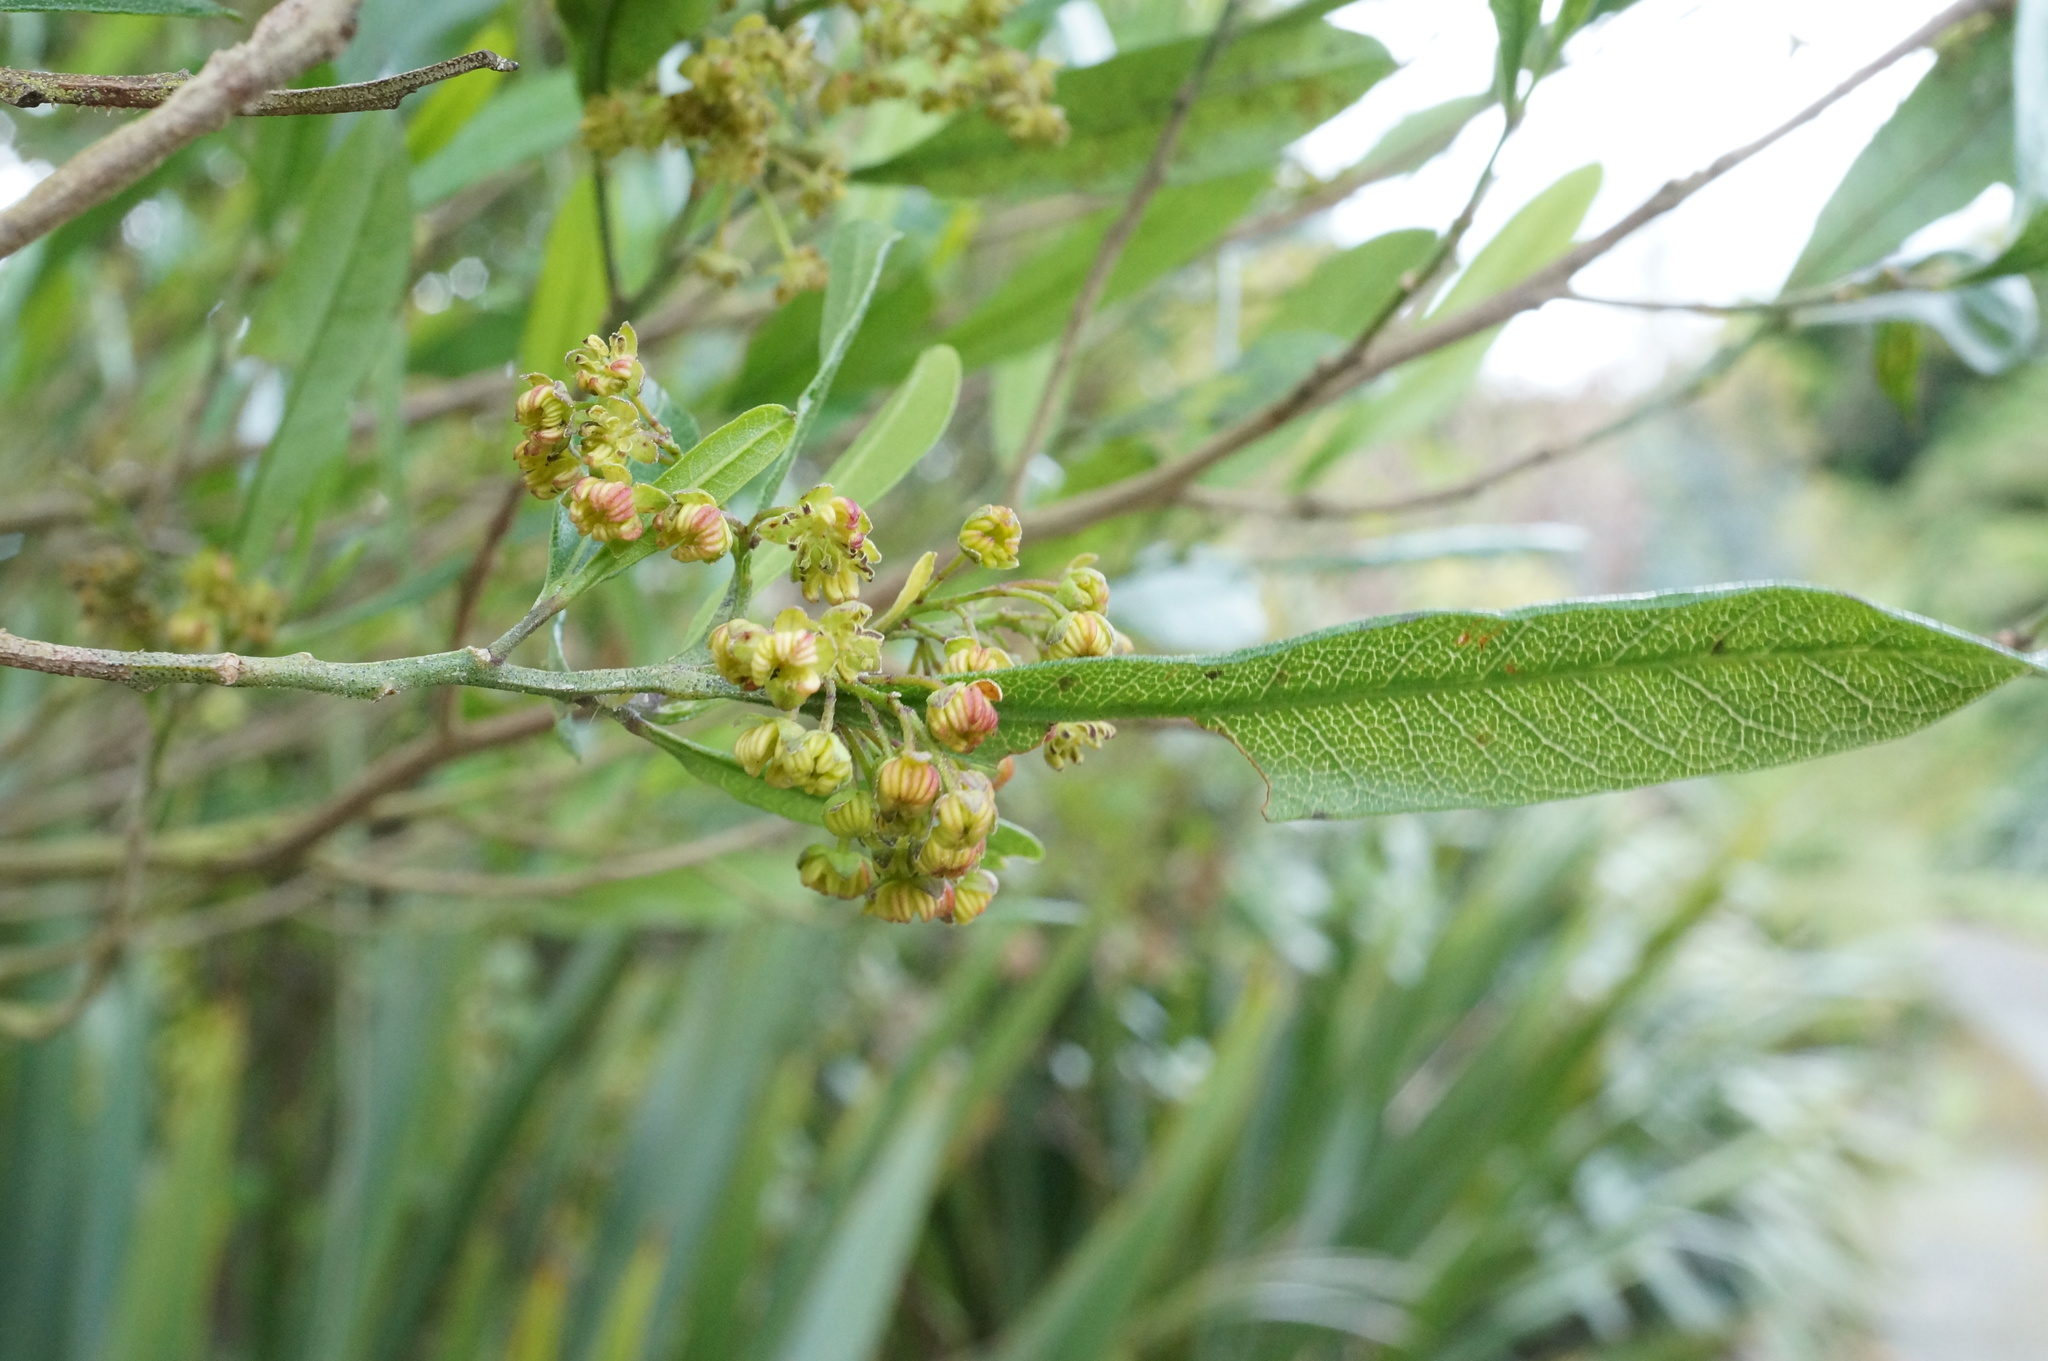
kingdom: Plantae
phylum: Tracheophyta
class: Magnoliopsida
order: Sapindales
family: Sapindaceae
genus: Dodonaea
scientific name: Dodonaea viscosa
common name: Hopbush
